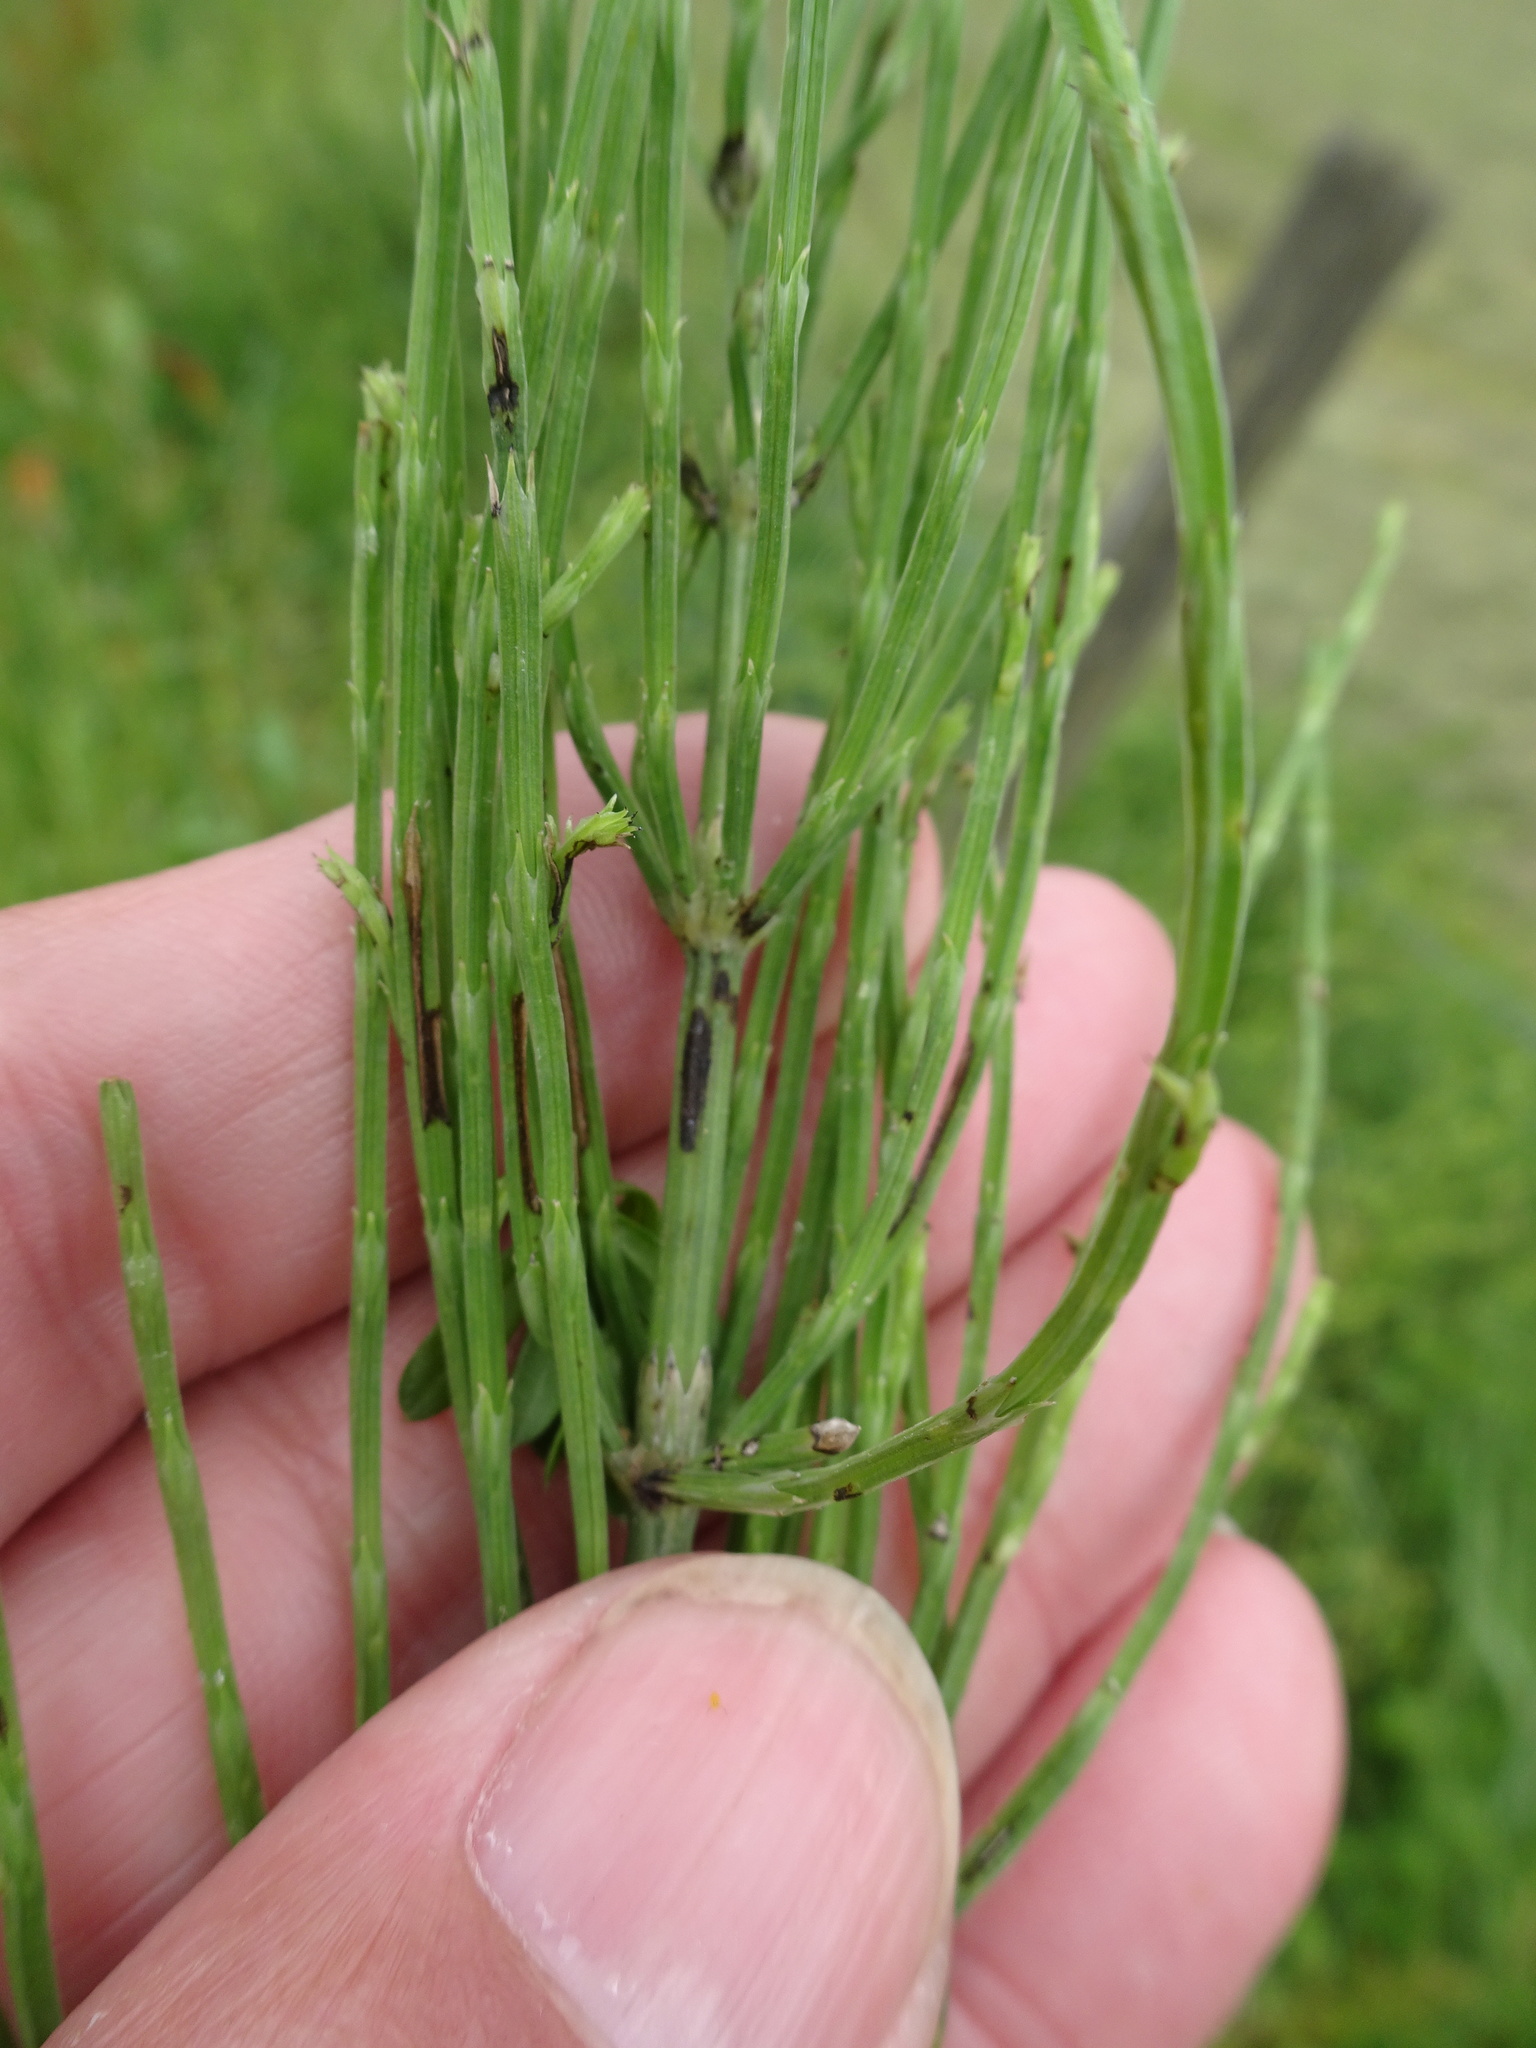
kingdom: Plantae
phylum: Tracheophyta
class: Polypodiopsida
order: Equisetales
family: Equisetaceae
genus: Equisetum
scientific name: Equisetum arvense
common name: Field horsetail
